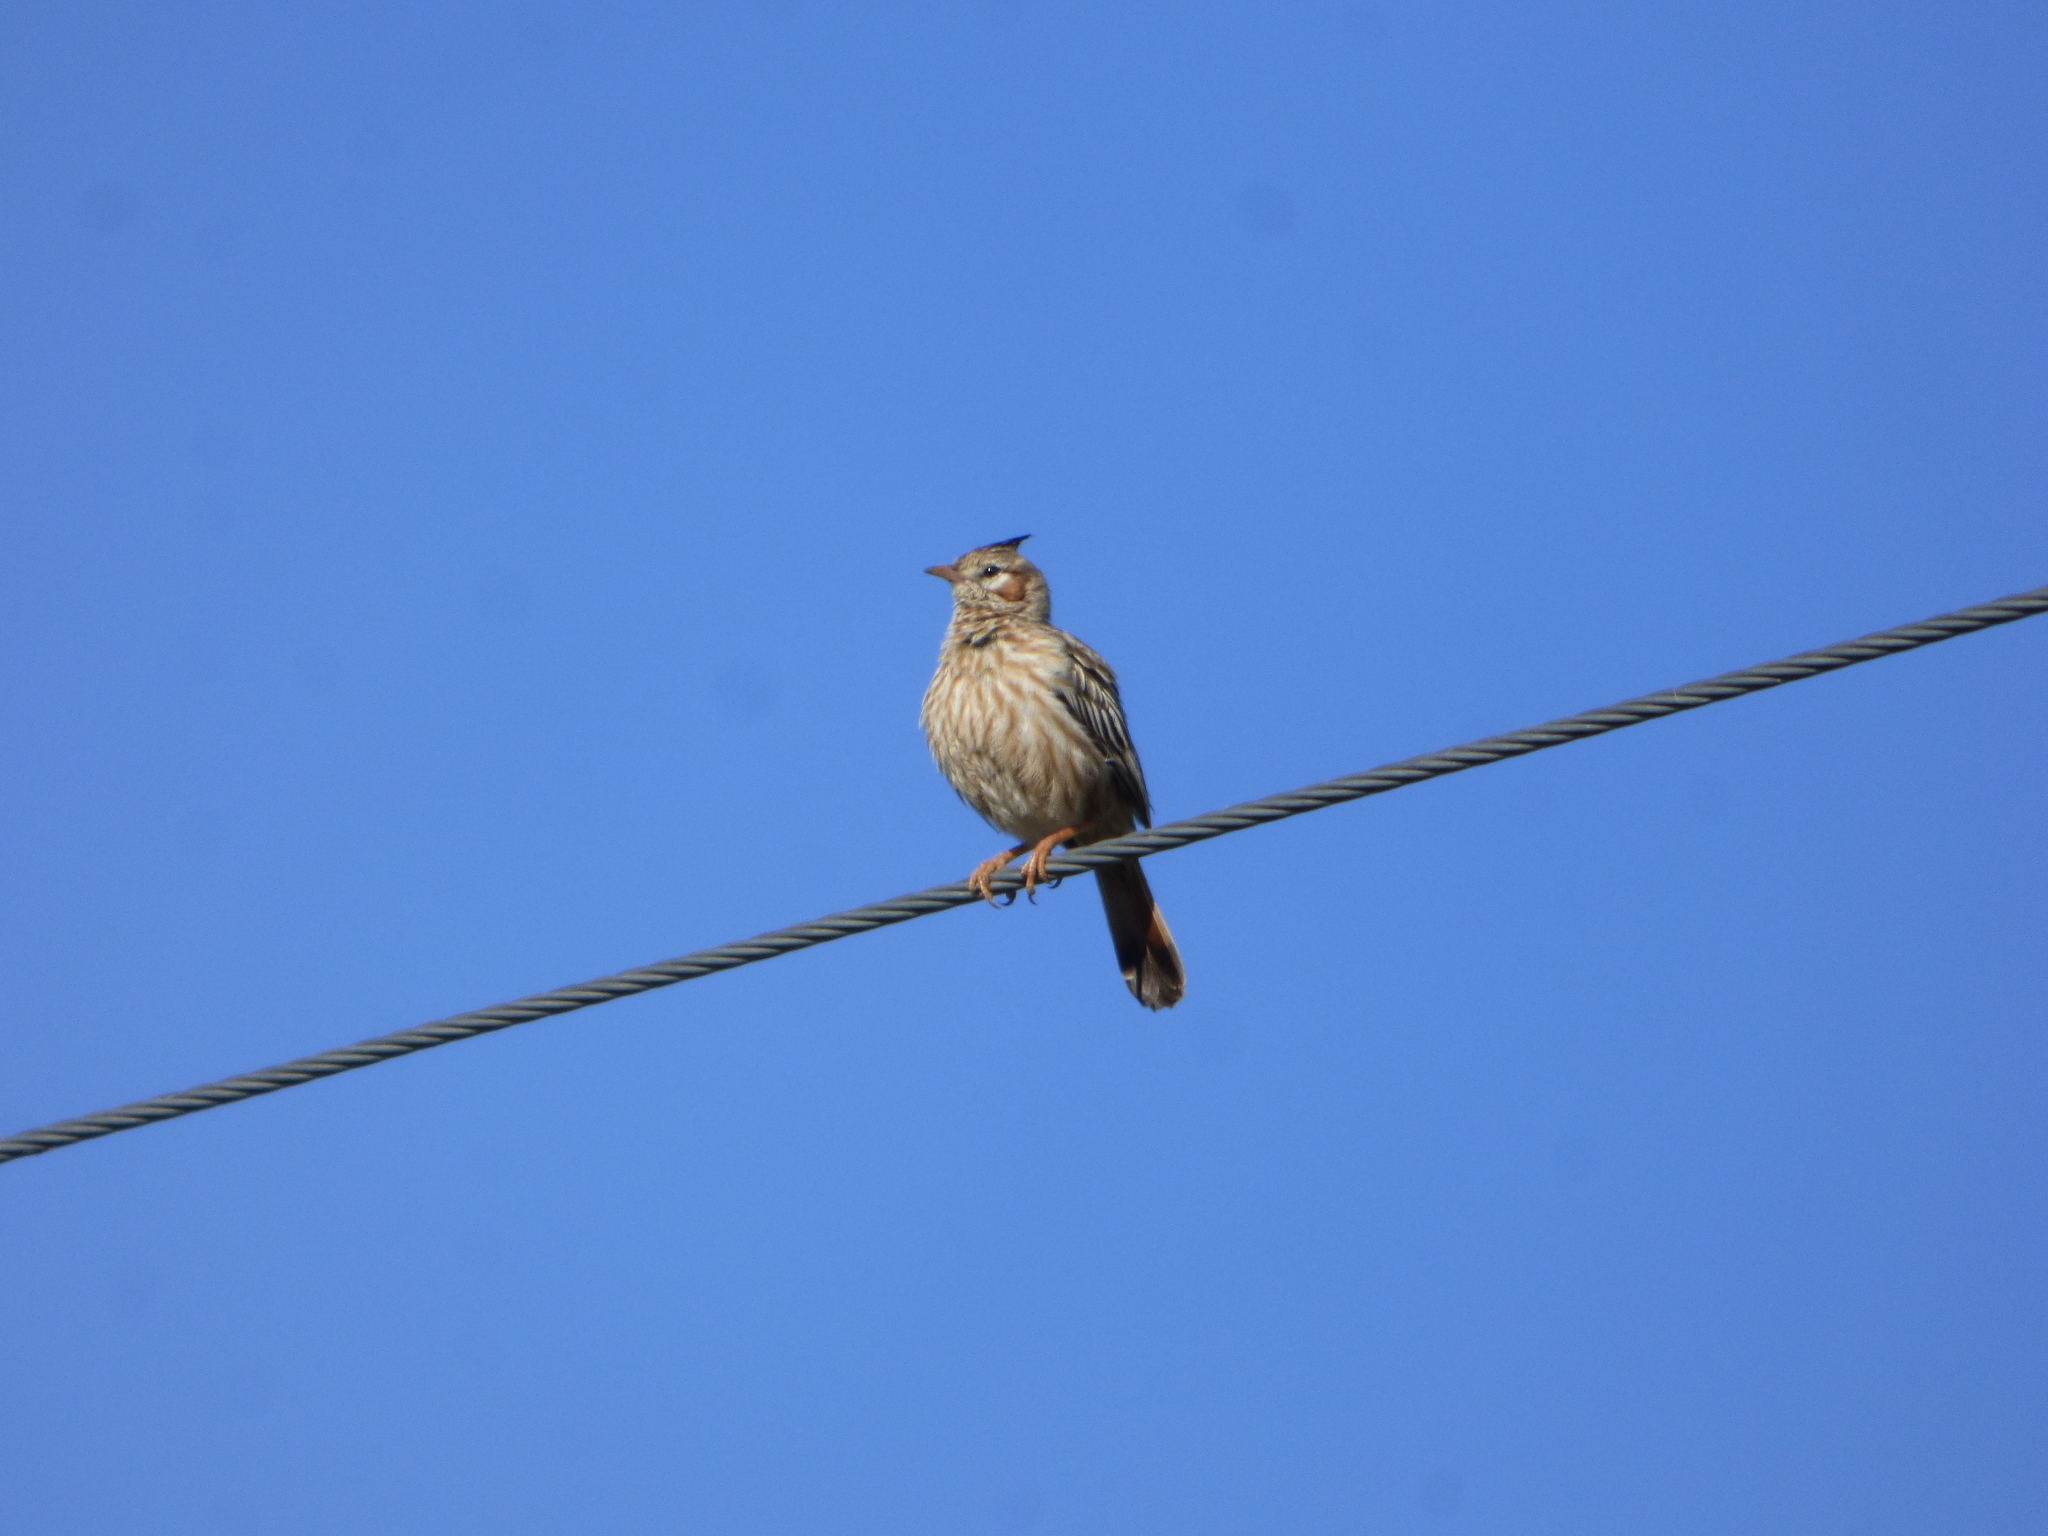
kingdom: Animalia
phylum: Chordata
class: Aves
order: Passeriformes
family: Furnariidae
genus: Coryphistera
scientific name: Coryphistera alaudina
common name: Lark-like brushrunner
